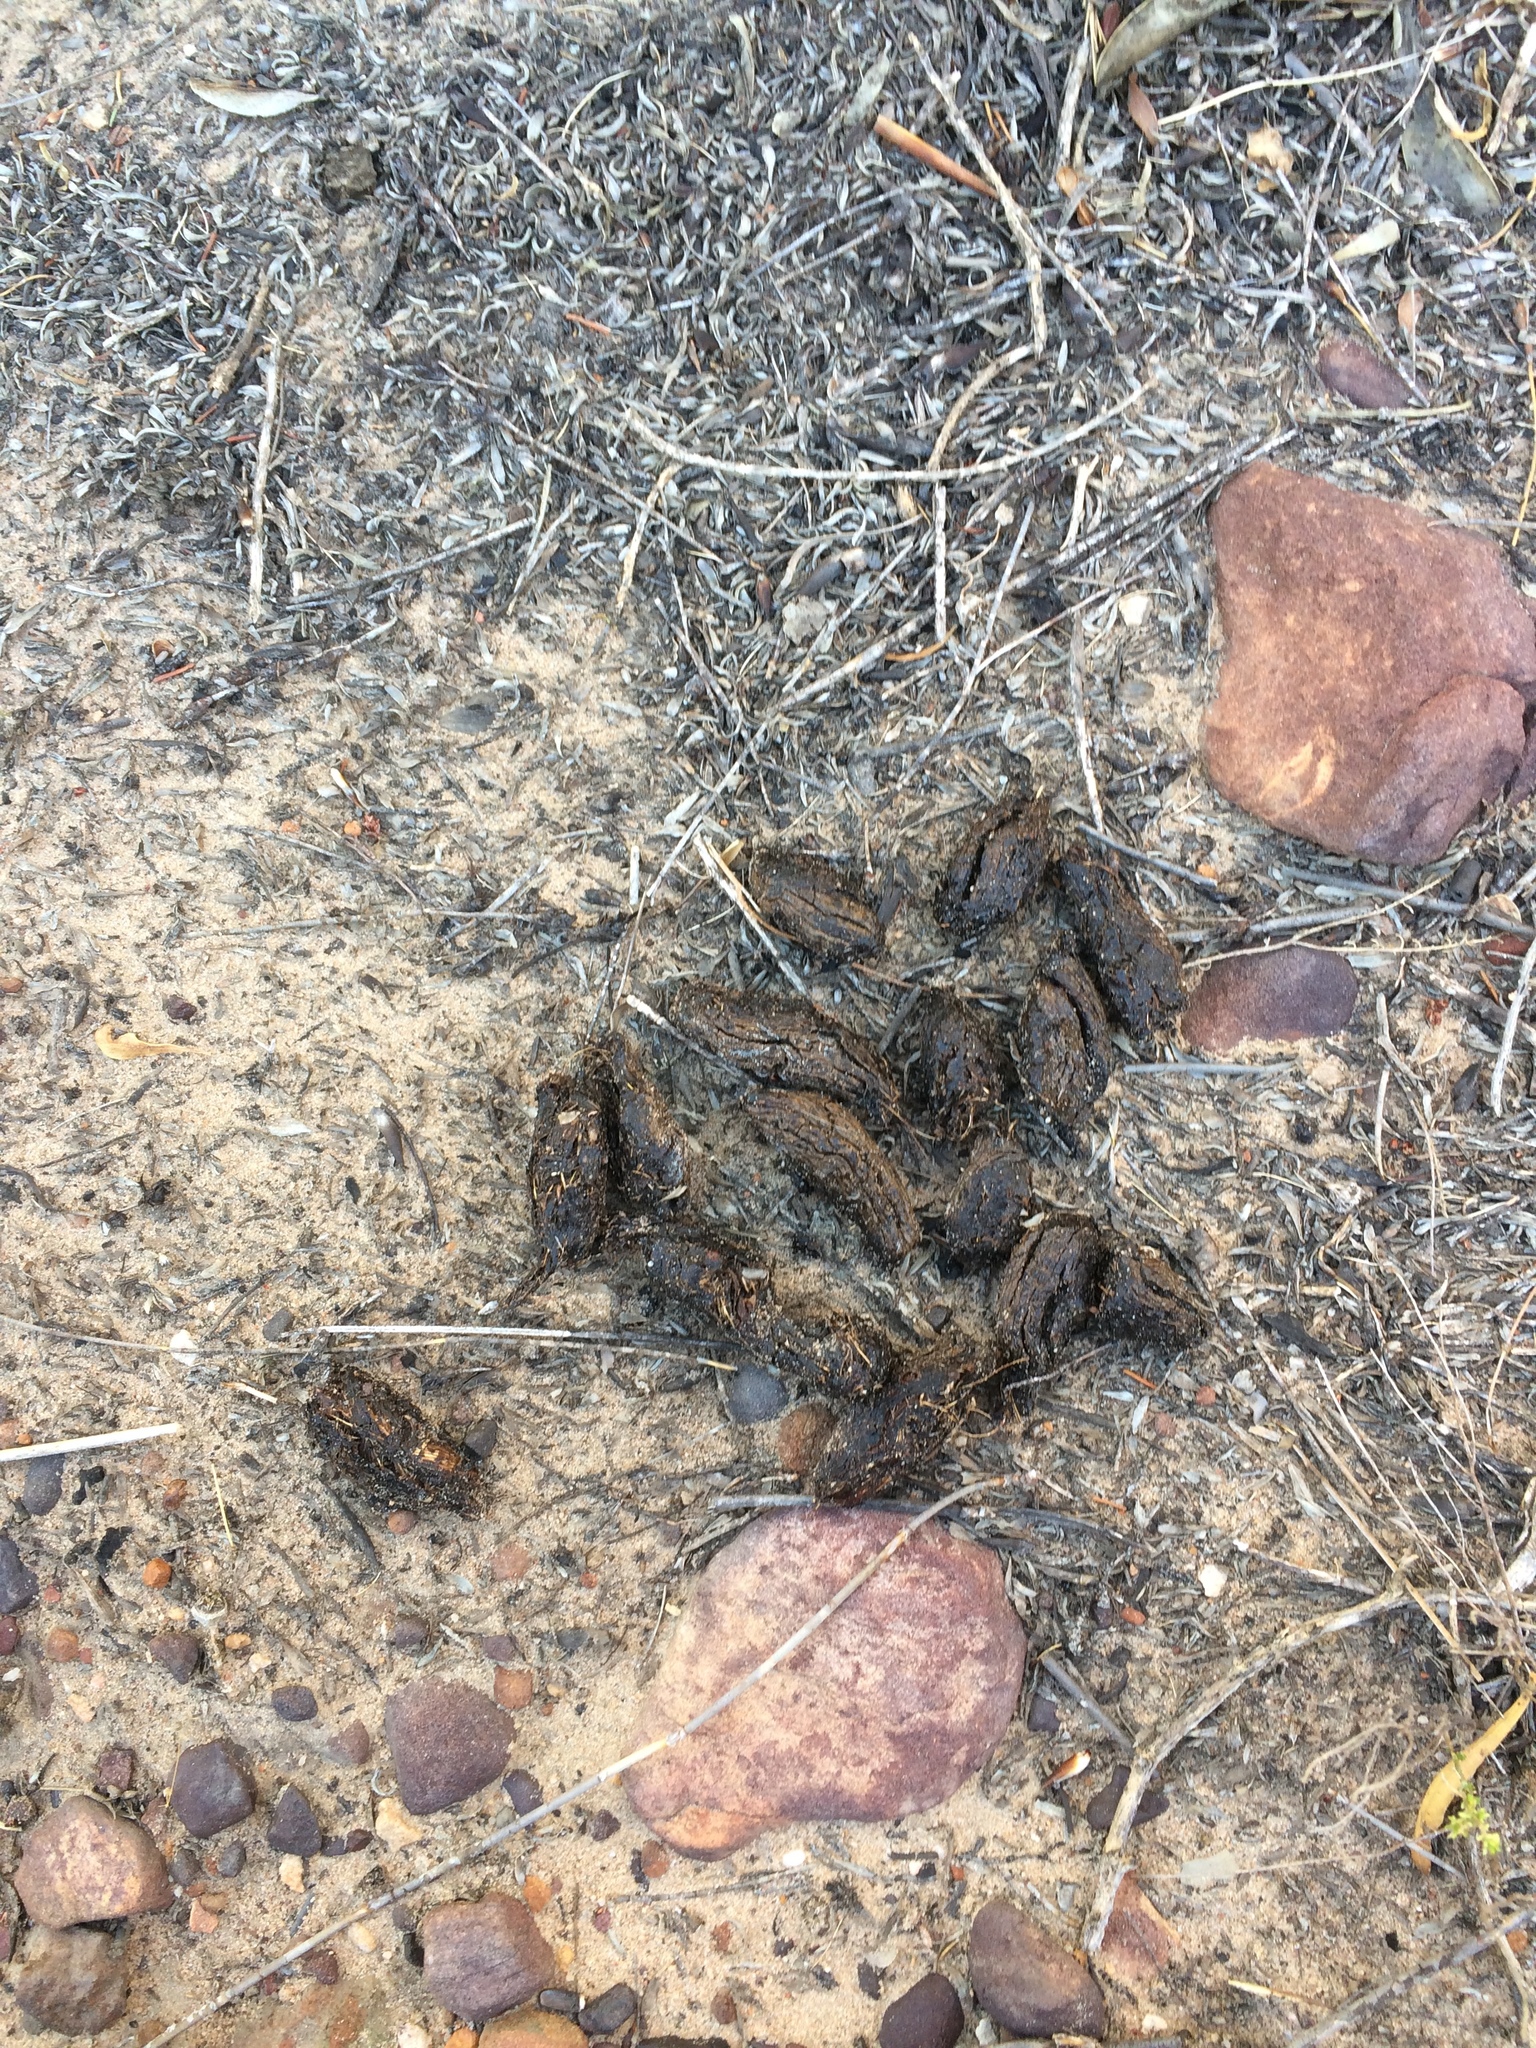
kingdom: Animalia
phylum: Chordata
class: Mammalia
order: Rodentia
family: Hystricidae
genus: Hystrix
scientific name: Hystrix africaeaustralis
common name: Cape porcupine
